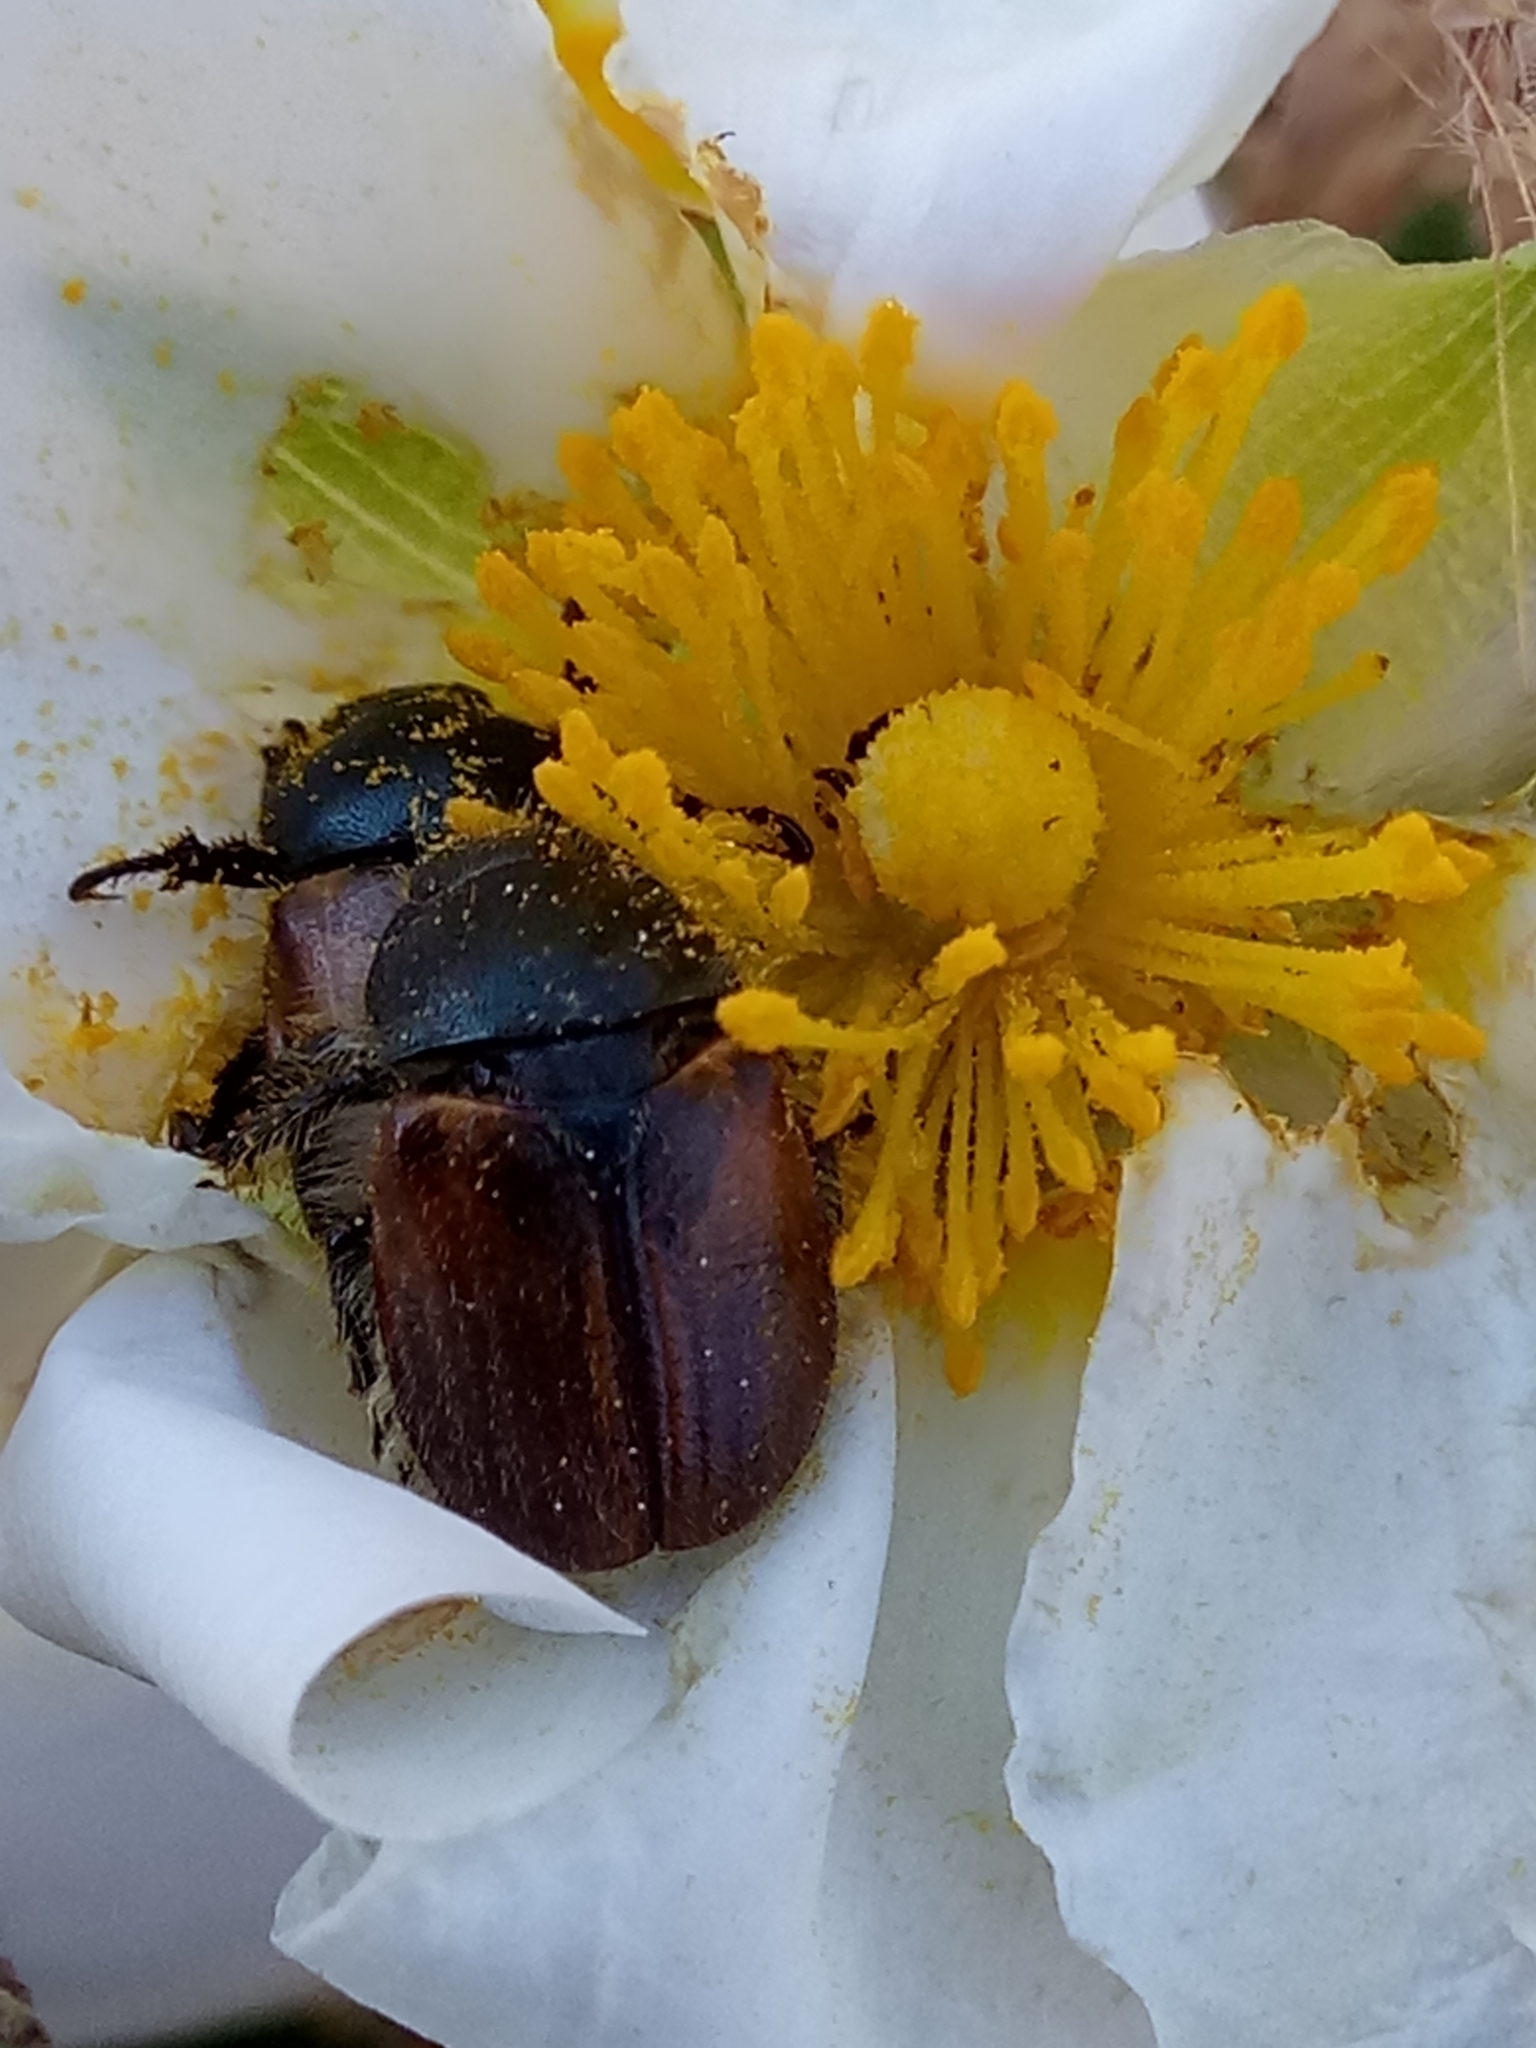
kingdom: Animalia
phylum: Arthropoda
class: Insecta
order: Coleoptera
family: Scarabaeidae
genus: Blitopertha
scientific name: Blitopertha lineata
